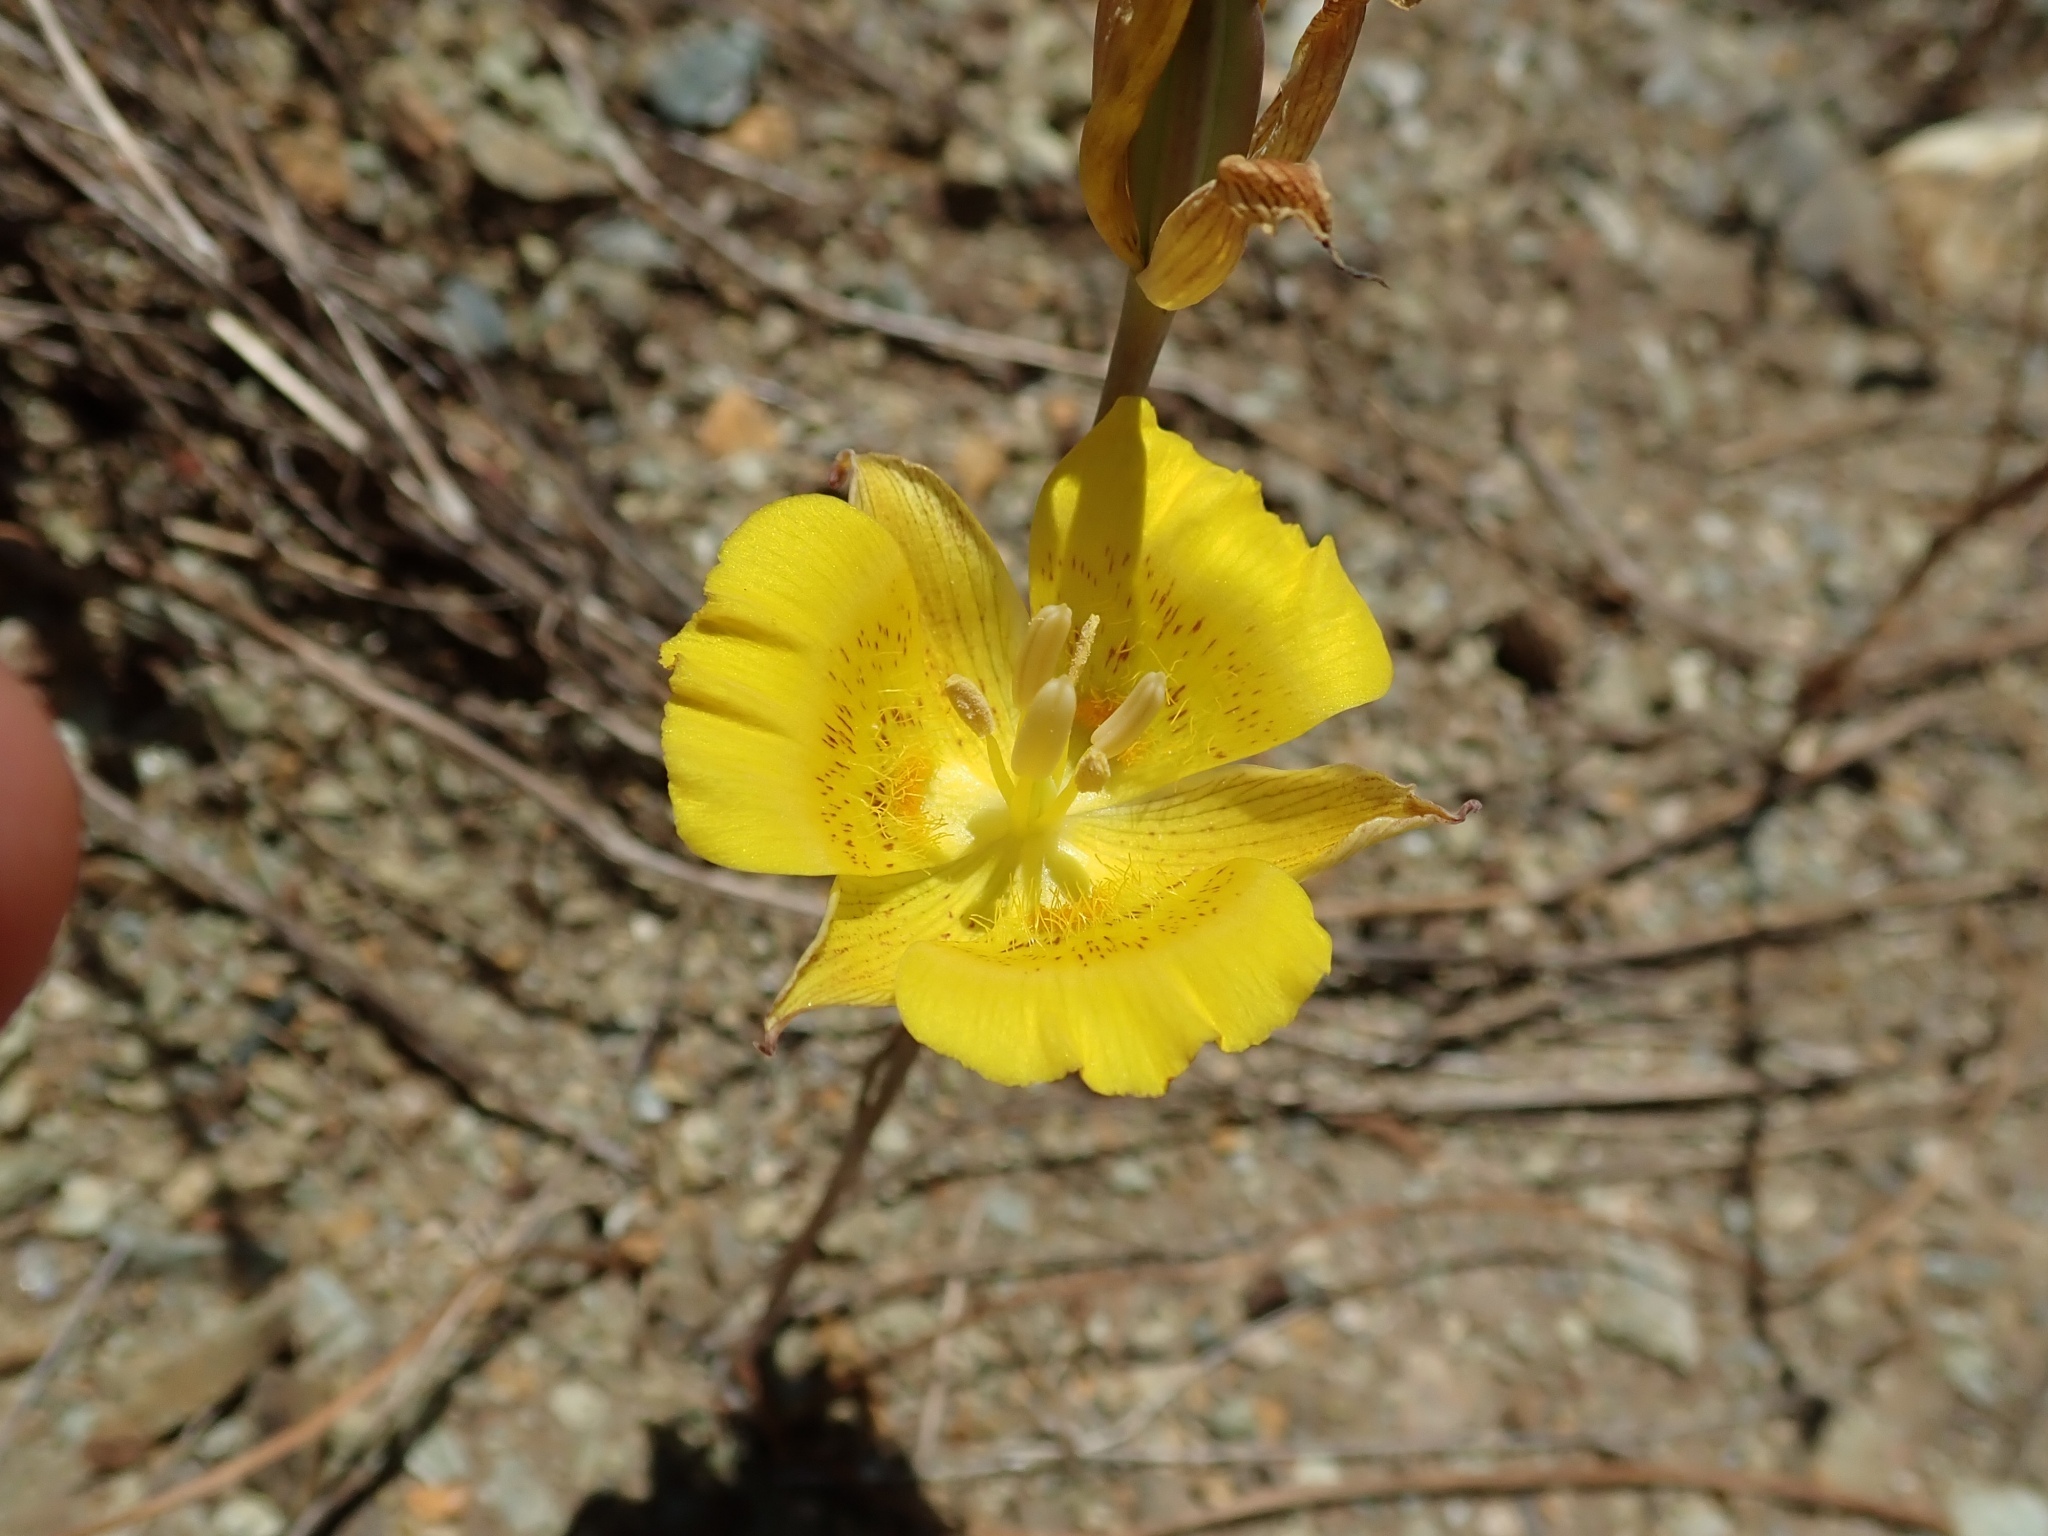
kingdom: Plantae
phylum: Tracheophyta
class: Liliopsida
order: Liliales
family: Liliaceae
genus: Calochortus
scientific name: Calochortus luteus
